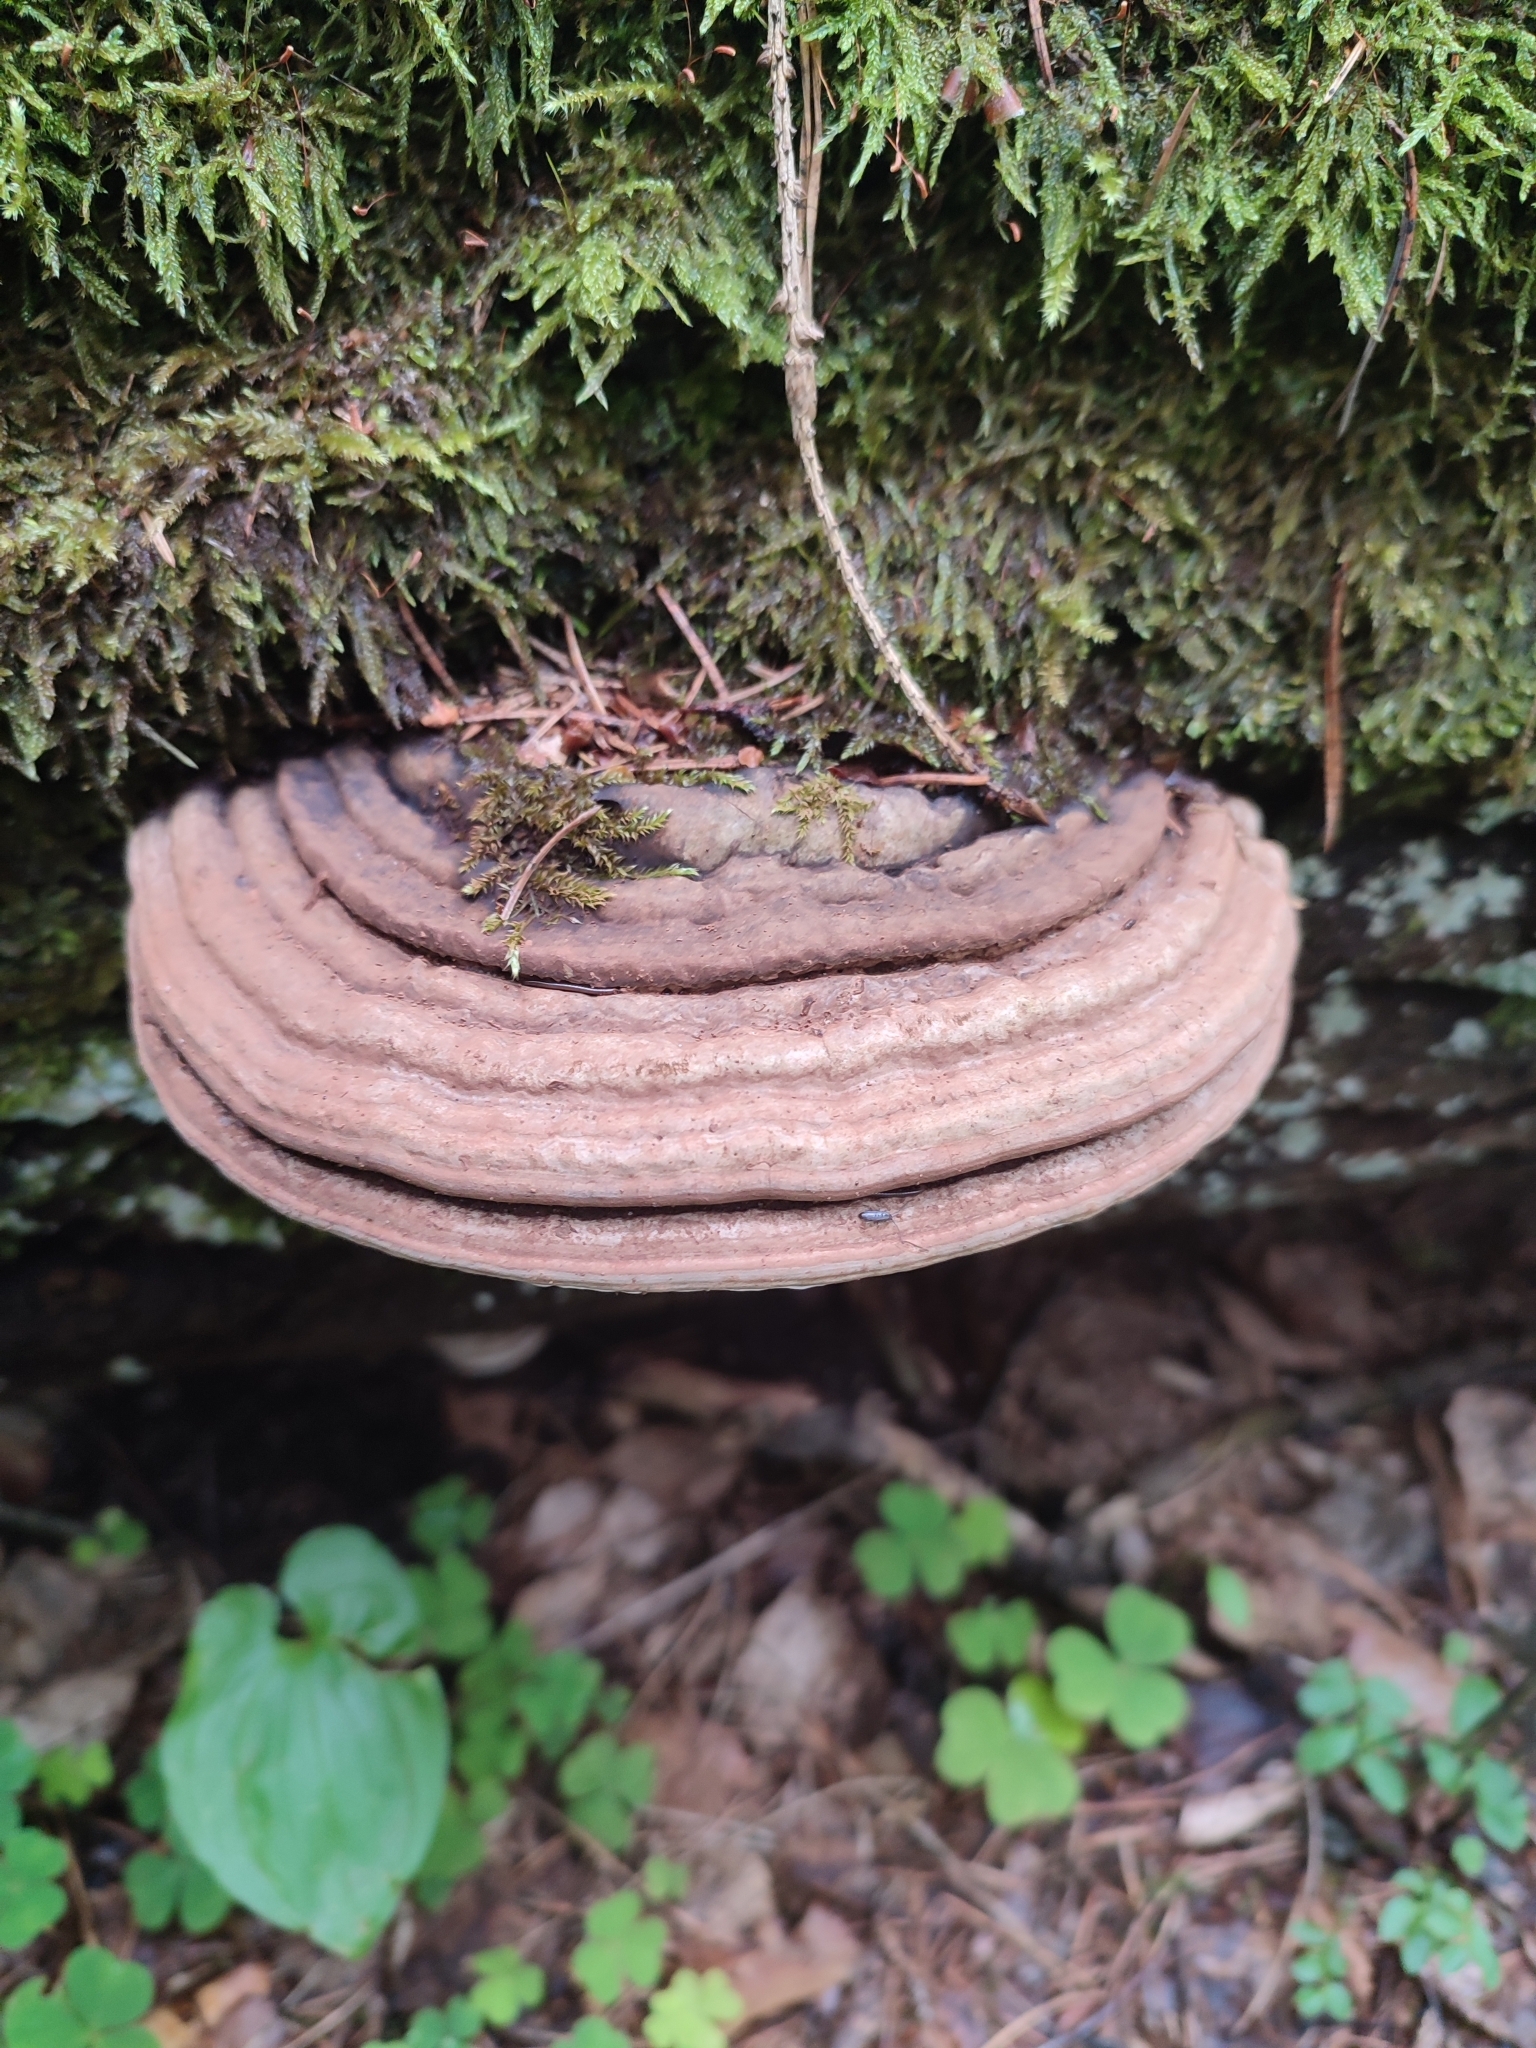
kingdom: Fungi
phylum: Basidiomycota
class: Agaricomycetes
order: Polyporales
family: Polyporaceae
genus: Ganoderma
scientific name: Ganoderma applanatum
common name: Artist's bracket
